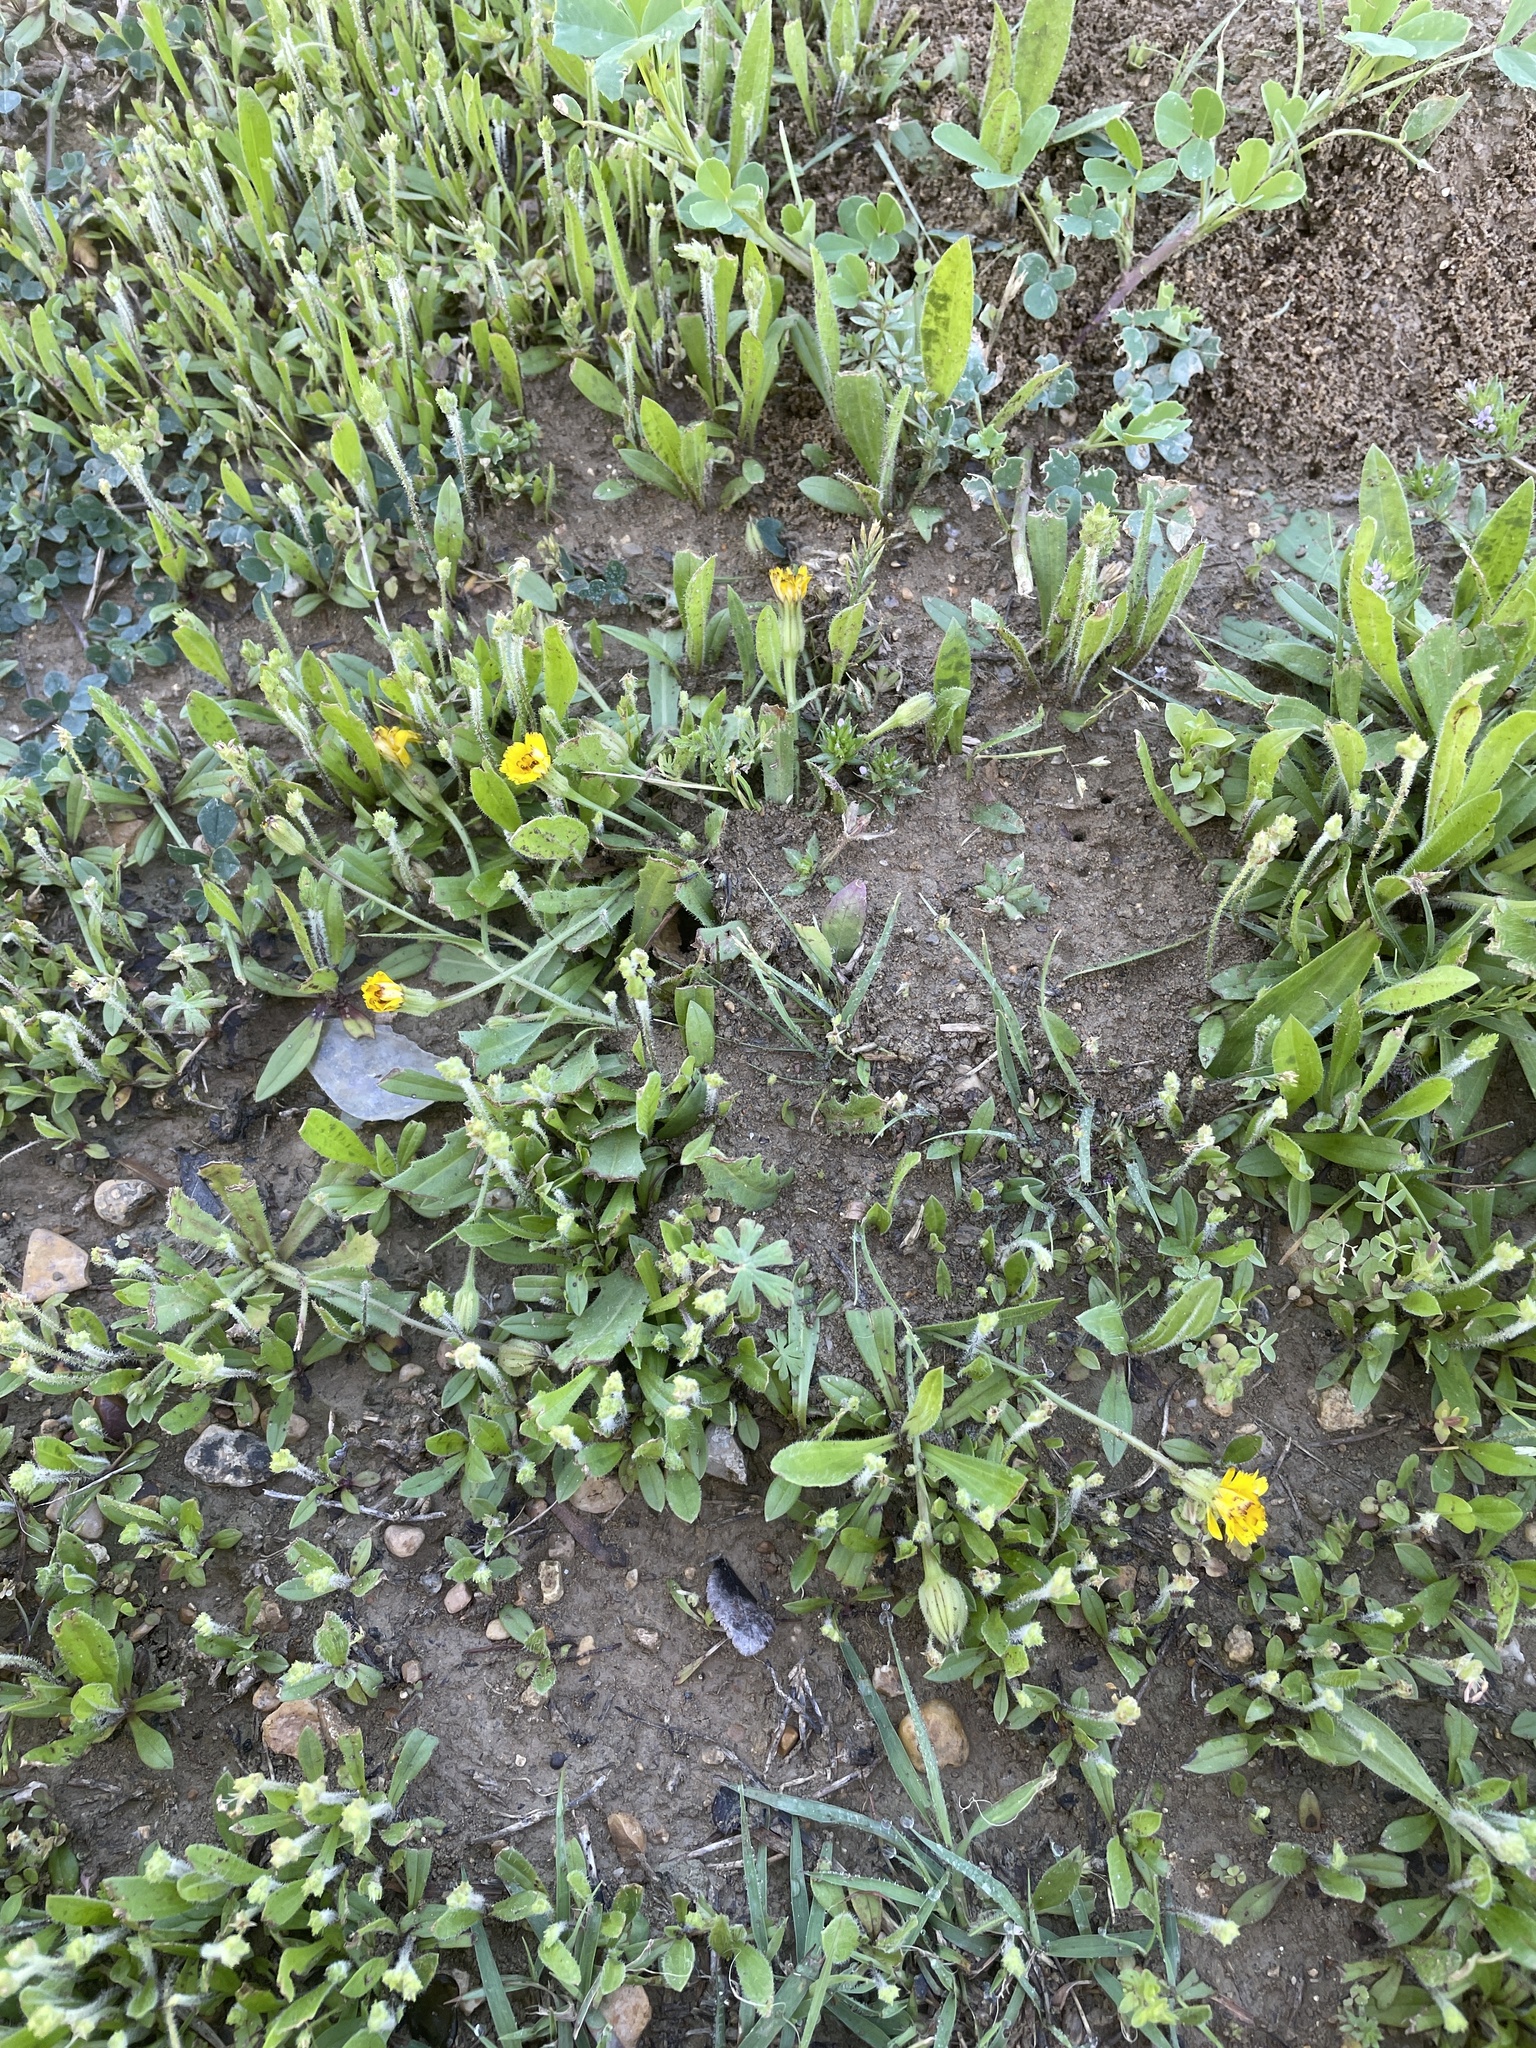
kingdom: Plantae
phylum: Tracheophyta
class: Magnoliopsida
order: Asterales
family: Asteraceae
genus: Hedypnois
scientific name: Hedypnois rhagadioloides
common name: Cretan weed
